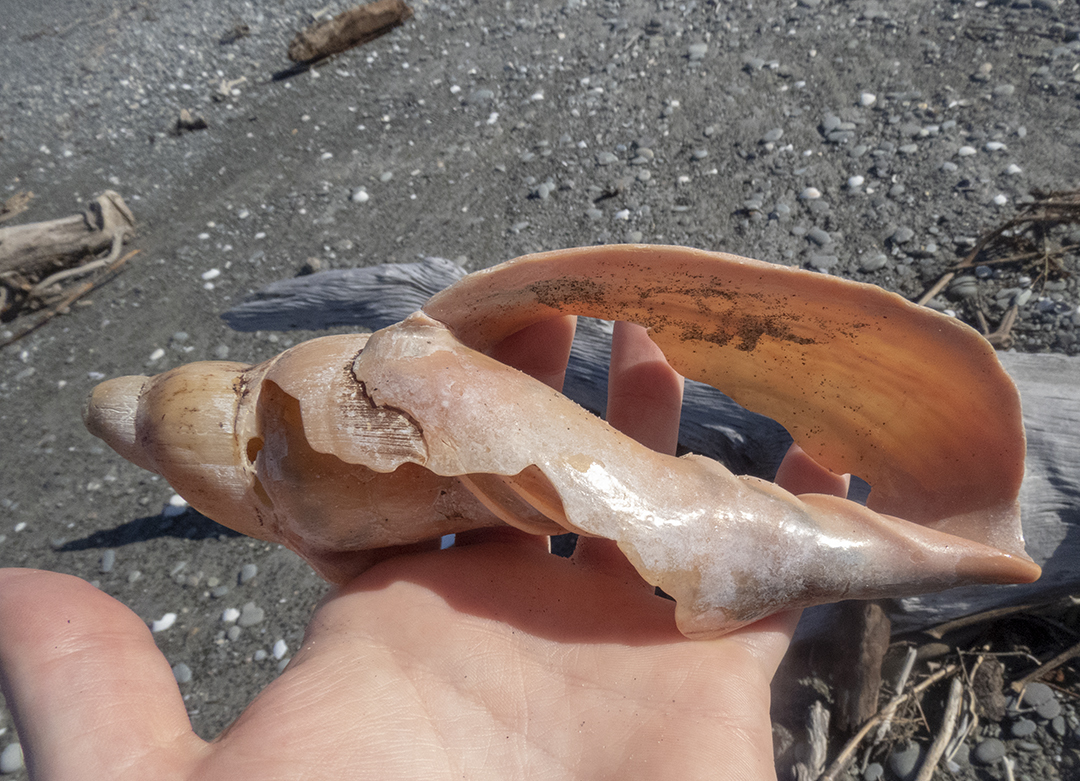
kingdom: Animalia
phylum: Mollusca
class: Gastropoda
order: Neogastropoda
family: Volutidae
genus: Alcithoe
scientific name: Alcithoe larochei
